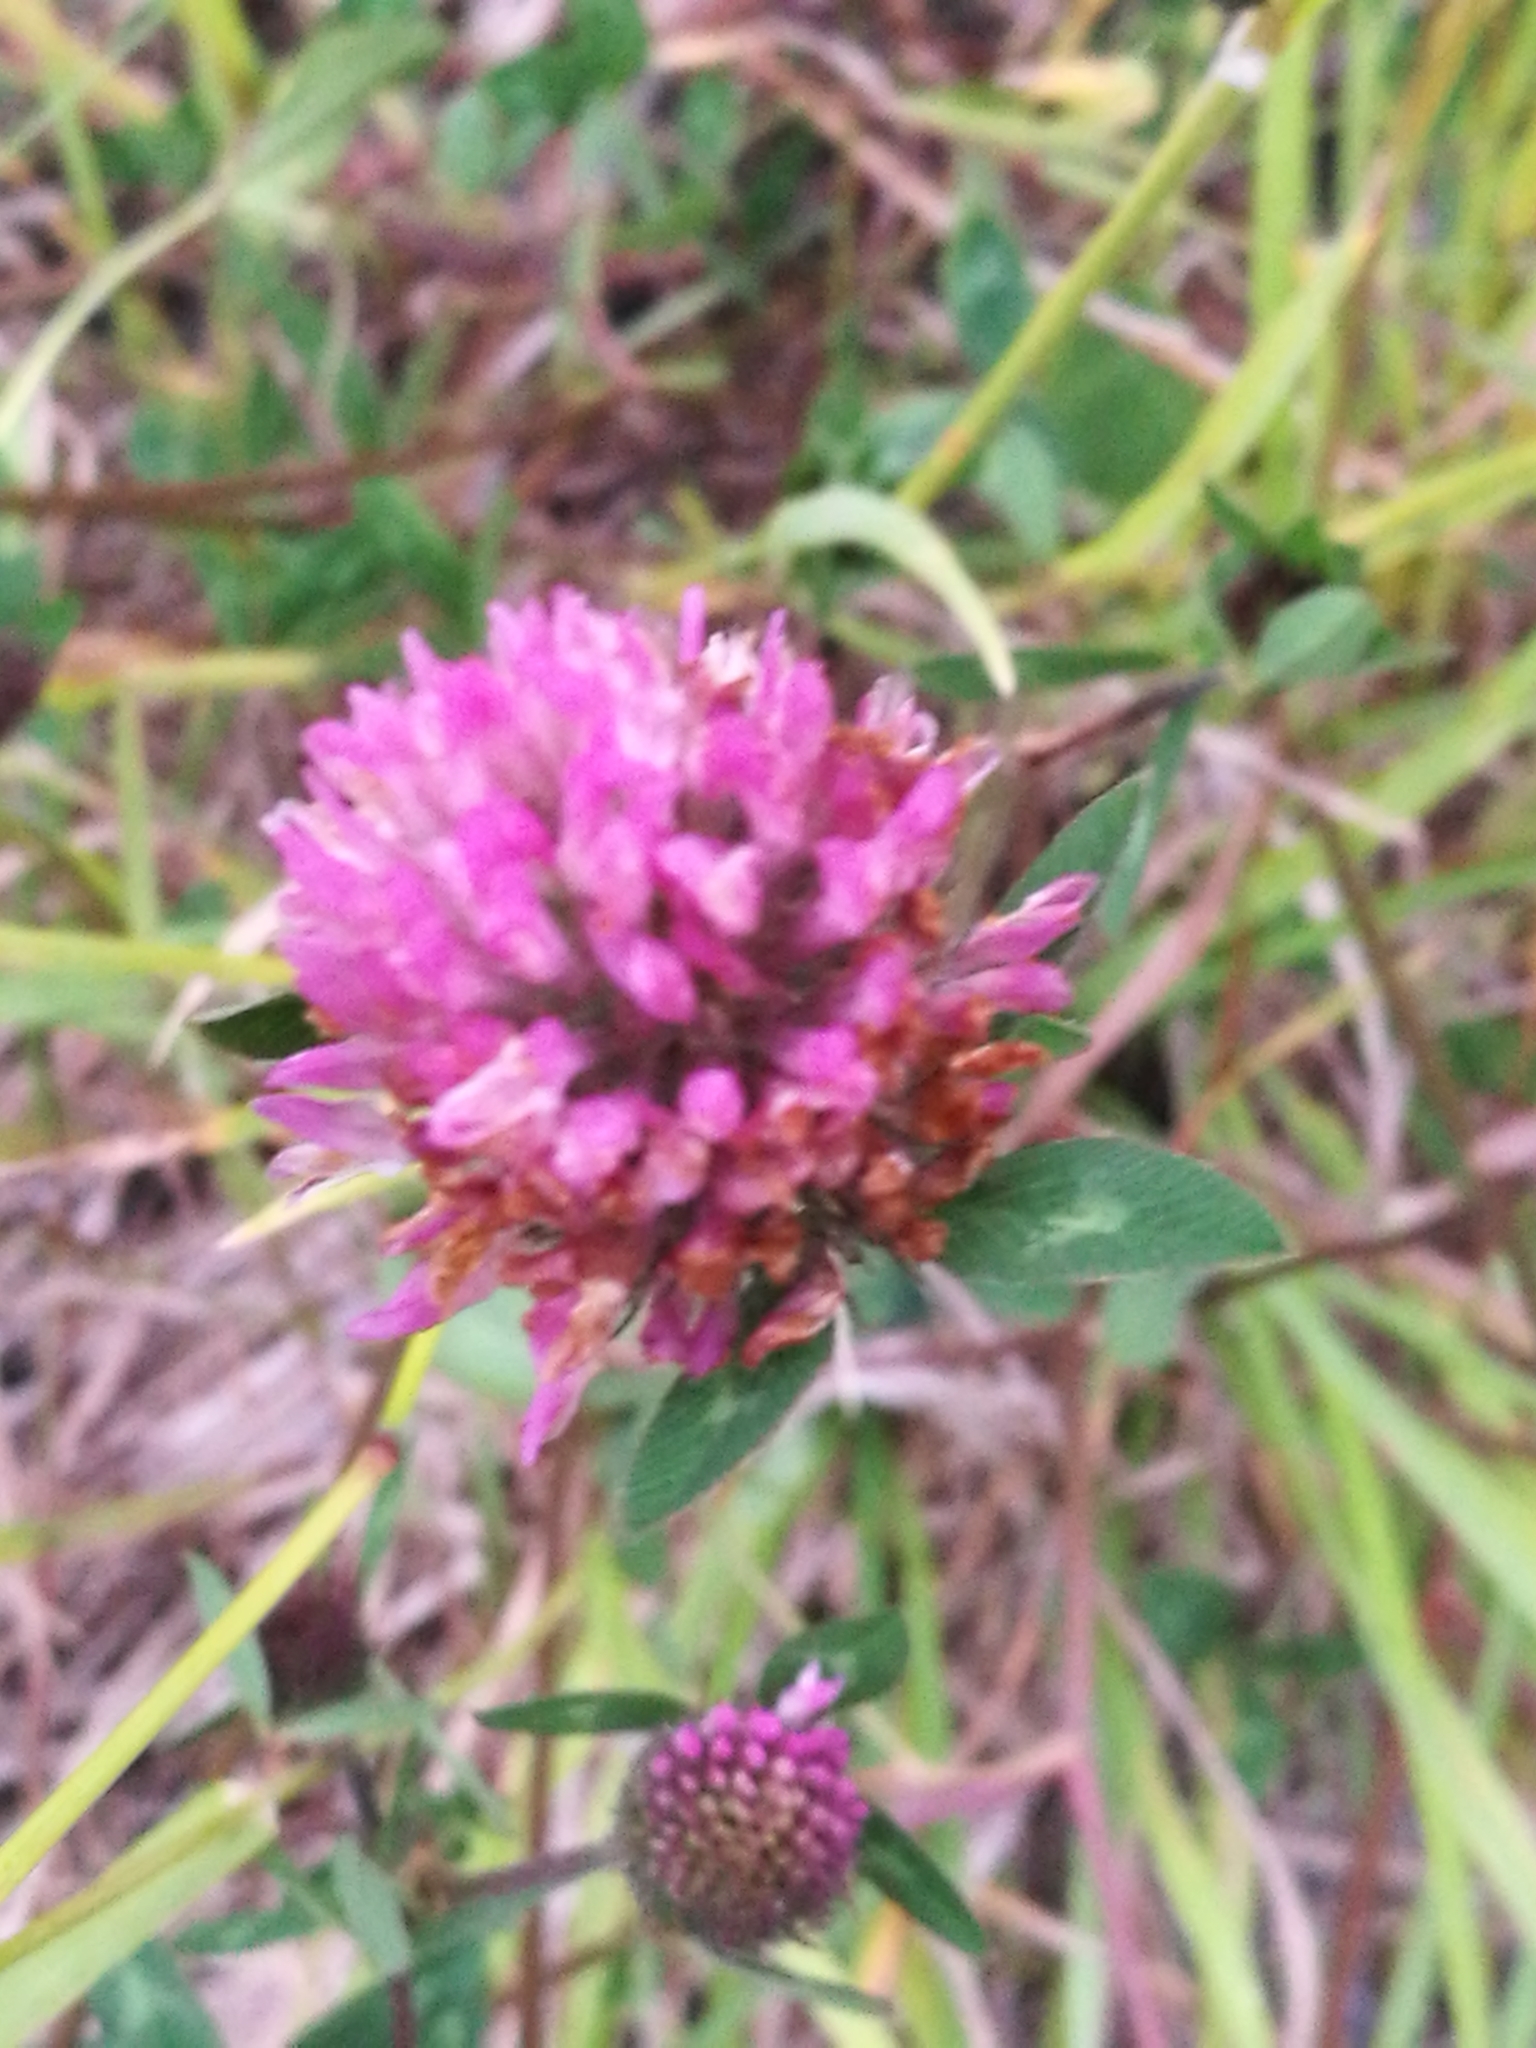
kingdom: Plantae
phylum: Tracheophyta
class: Magnoliopsida
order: Fabales
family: Fabaceae
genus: Trifolium
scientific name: Trifolium pratense
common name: Red clover
